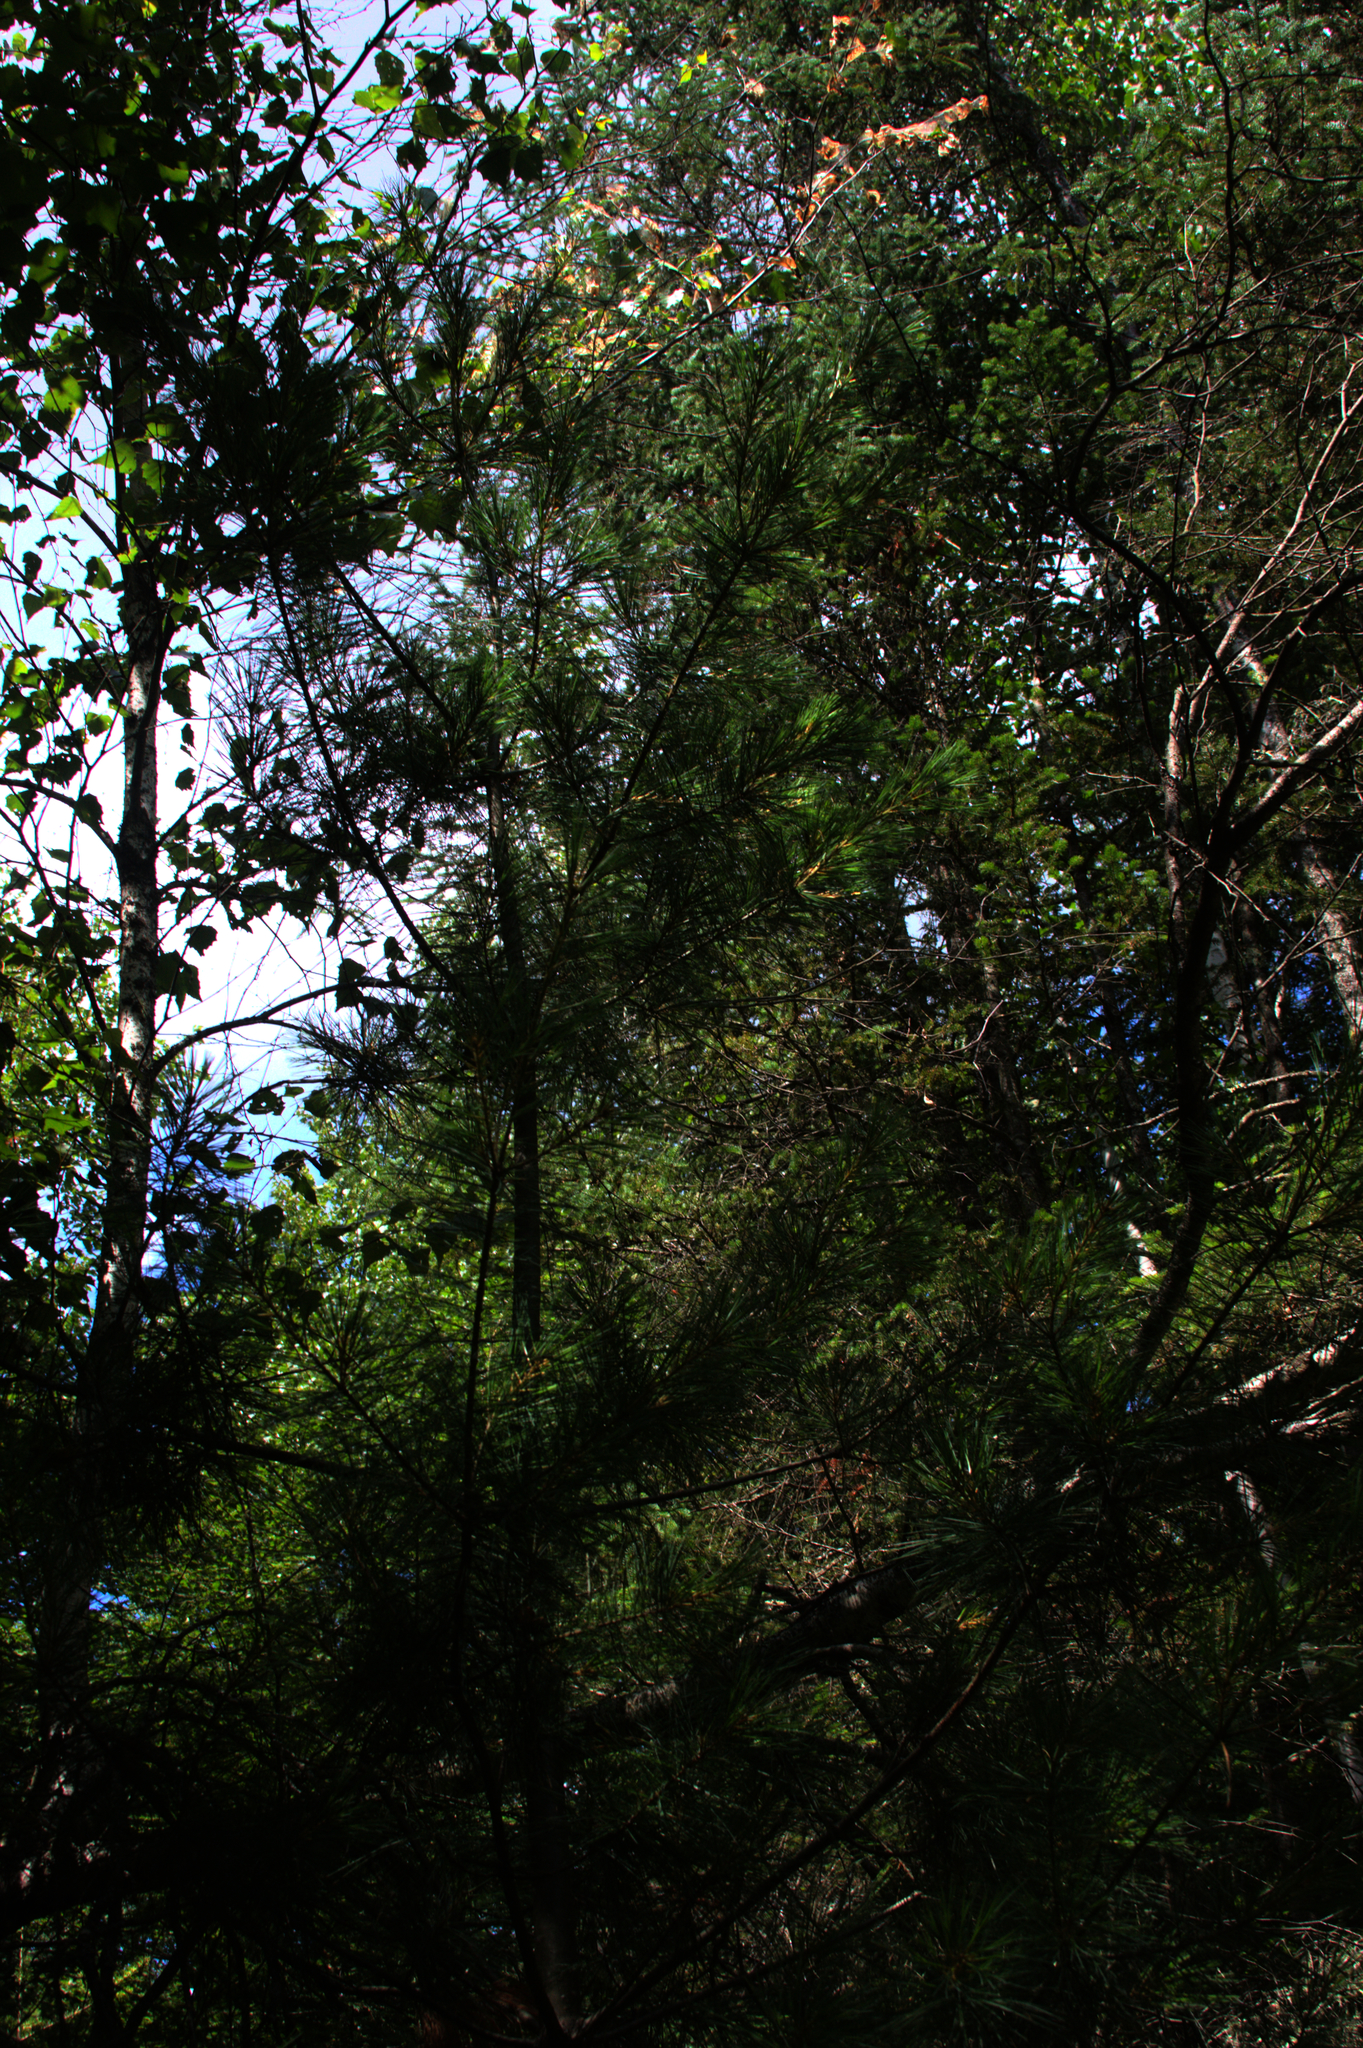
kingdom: Plantae
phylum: Tracheophyta
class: Pinopsida
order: Pinales
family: Pinaceae
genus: Pinus
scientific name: Pinus strobus
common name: Weymouth pine
